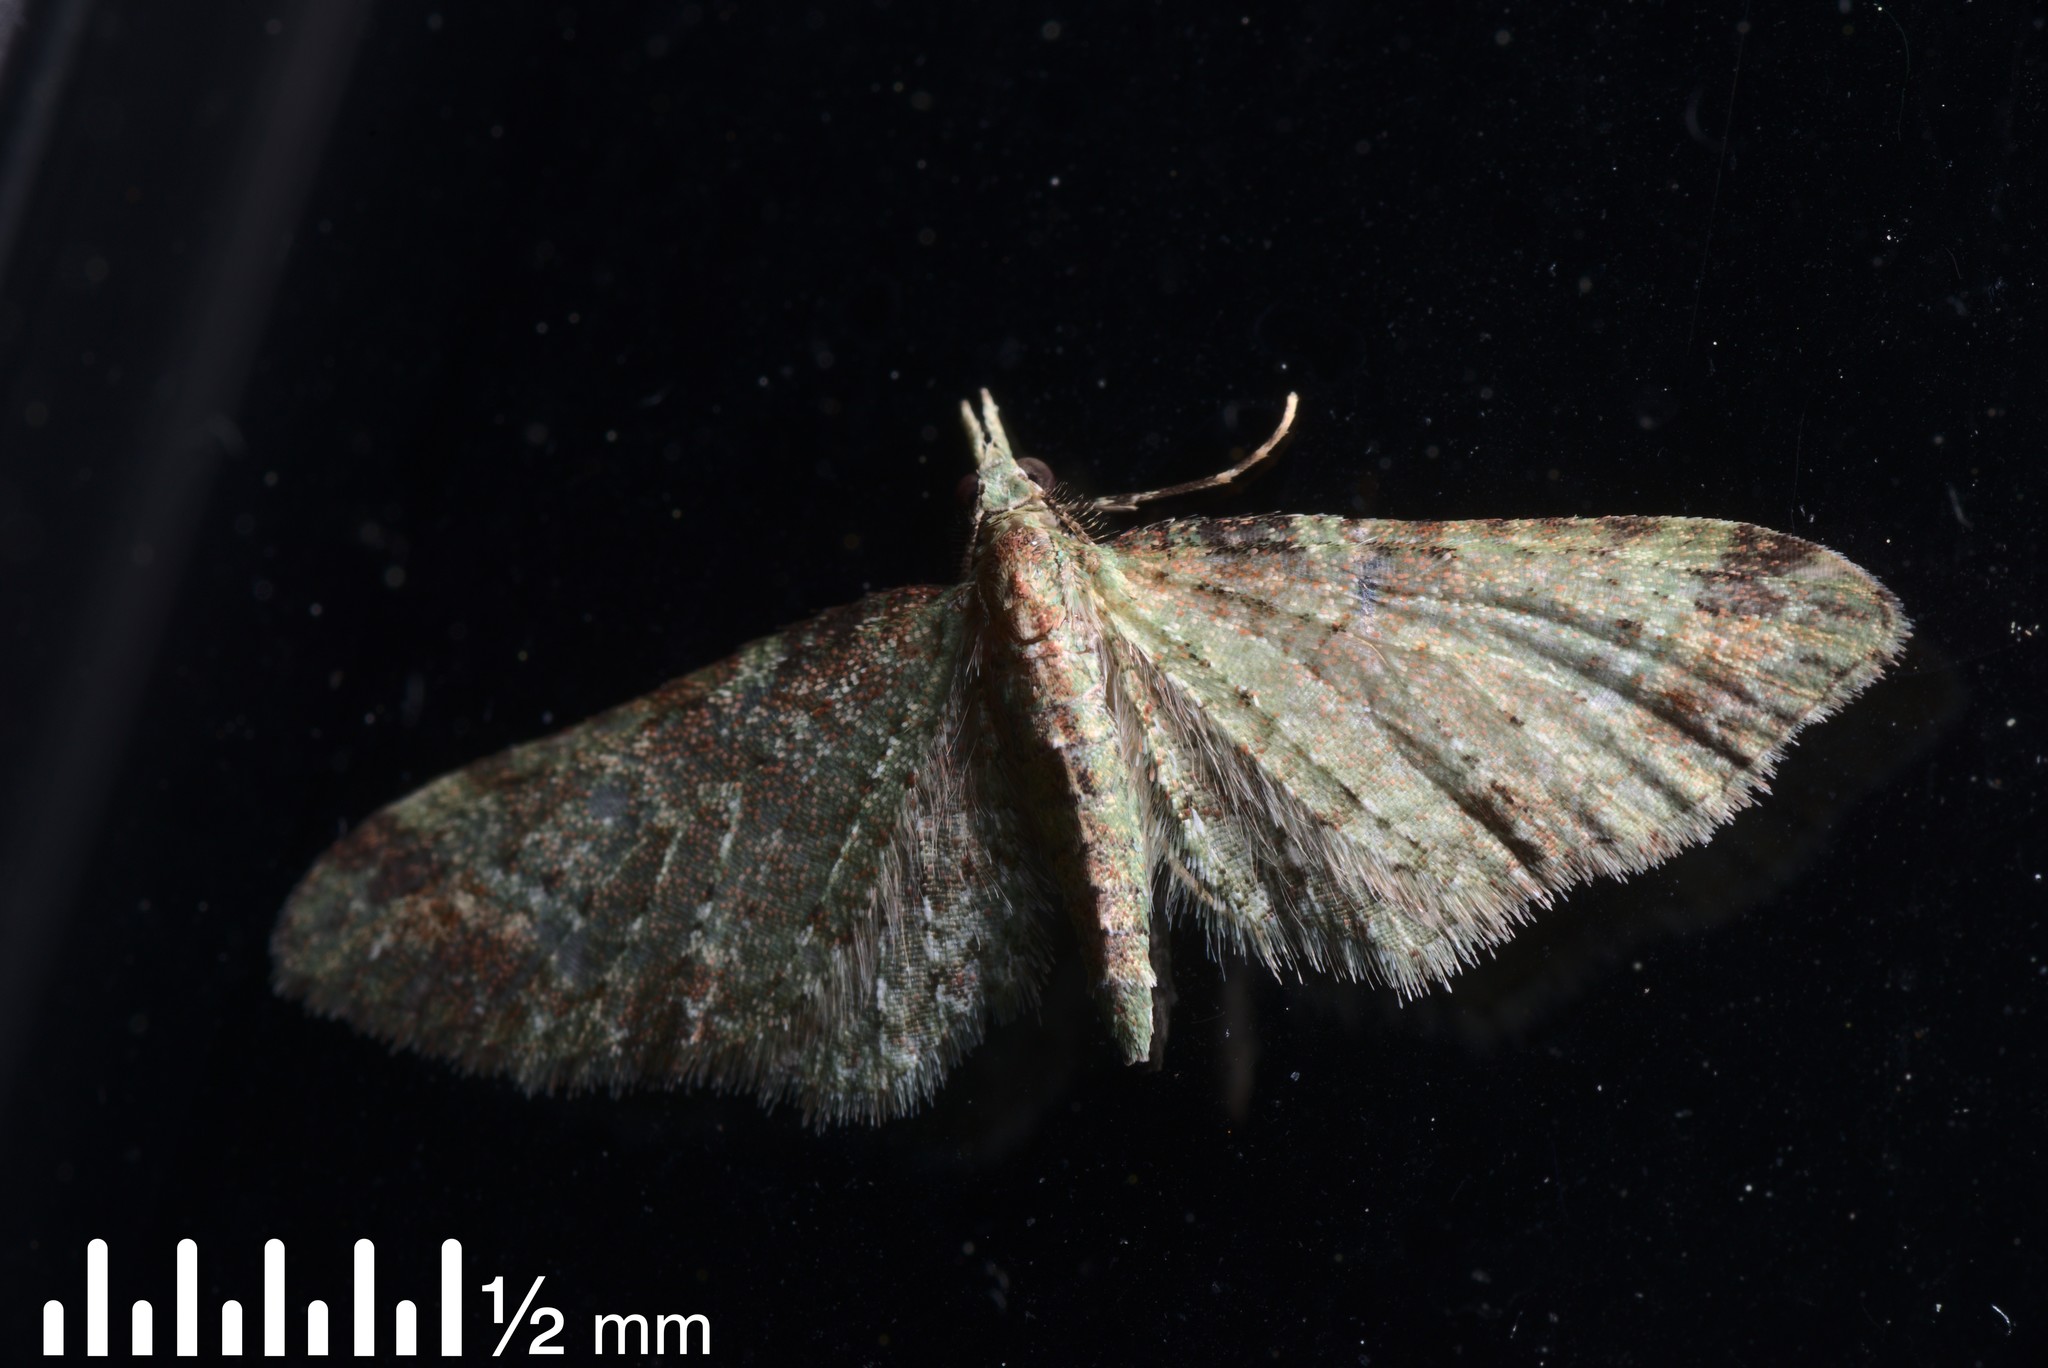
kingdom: Animalia
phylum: Arthropoda
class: Insecta
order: Lepidoptera
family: Geometridae
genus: Pasiphila
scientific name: Pasiphila plinthina
